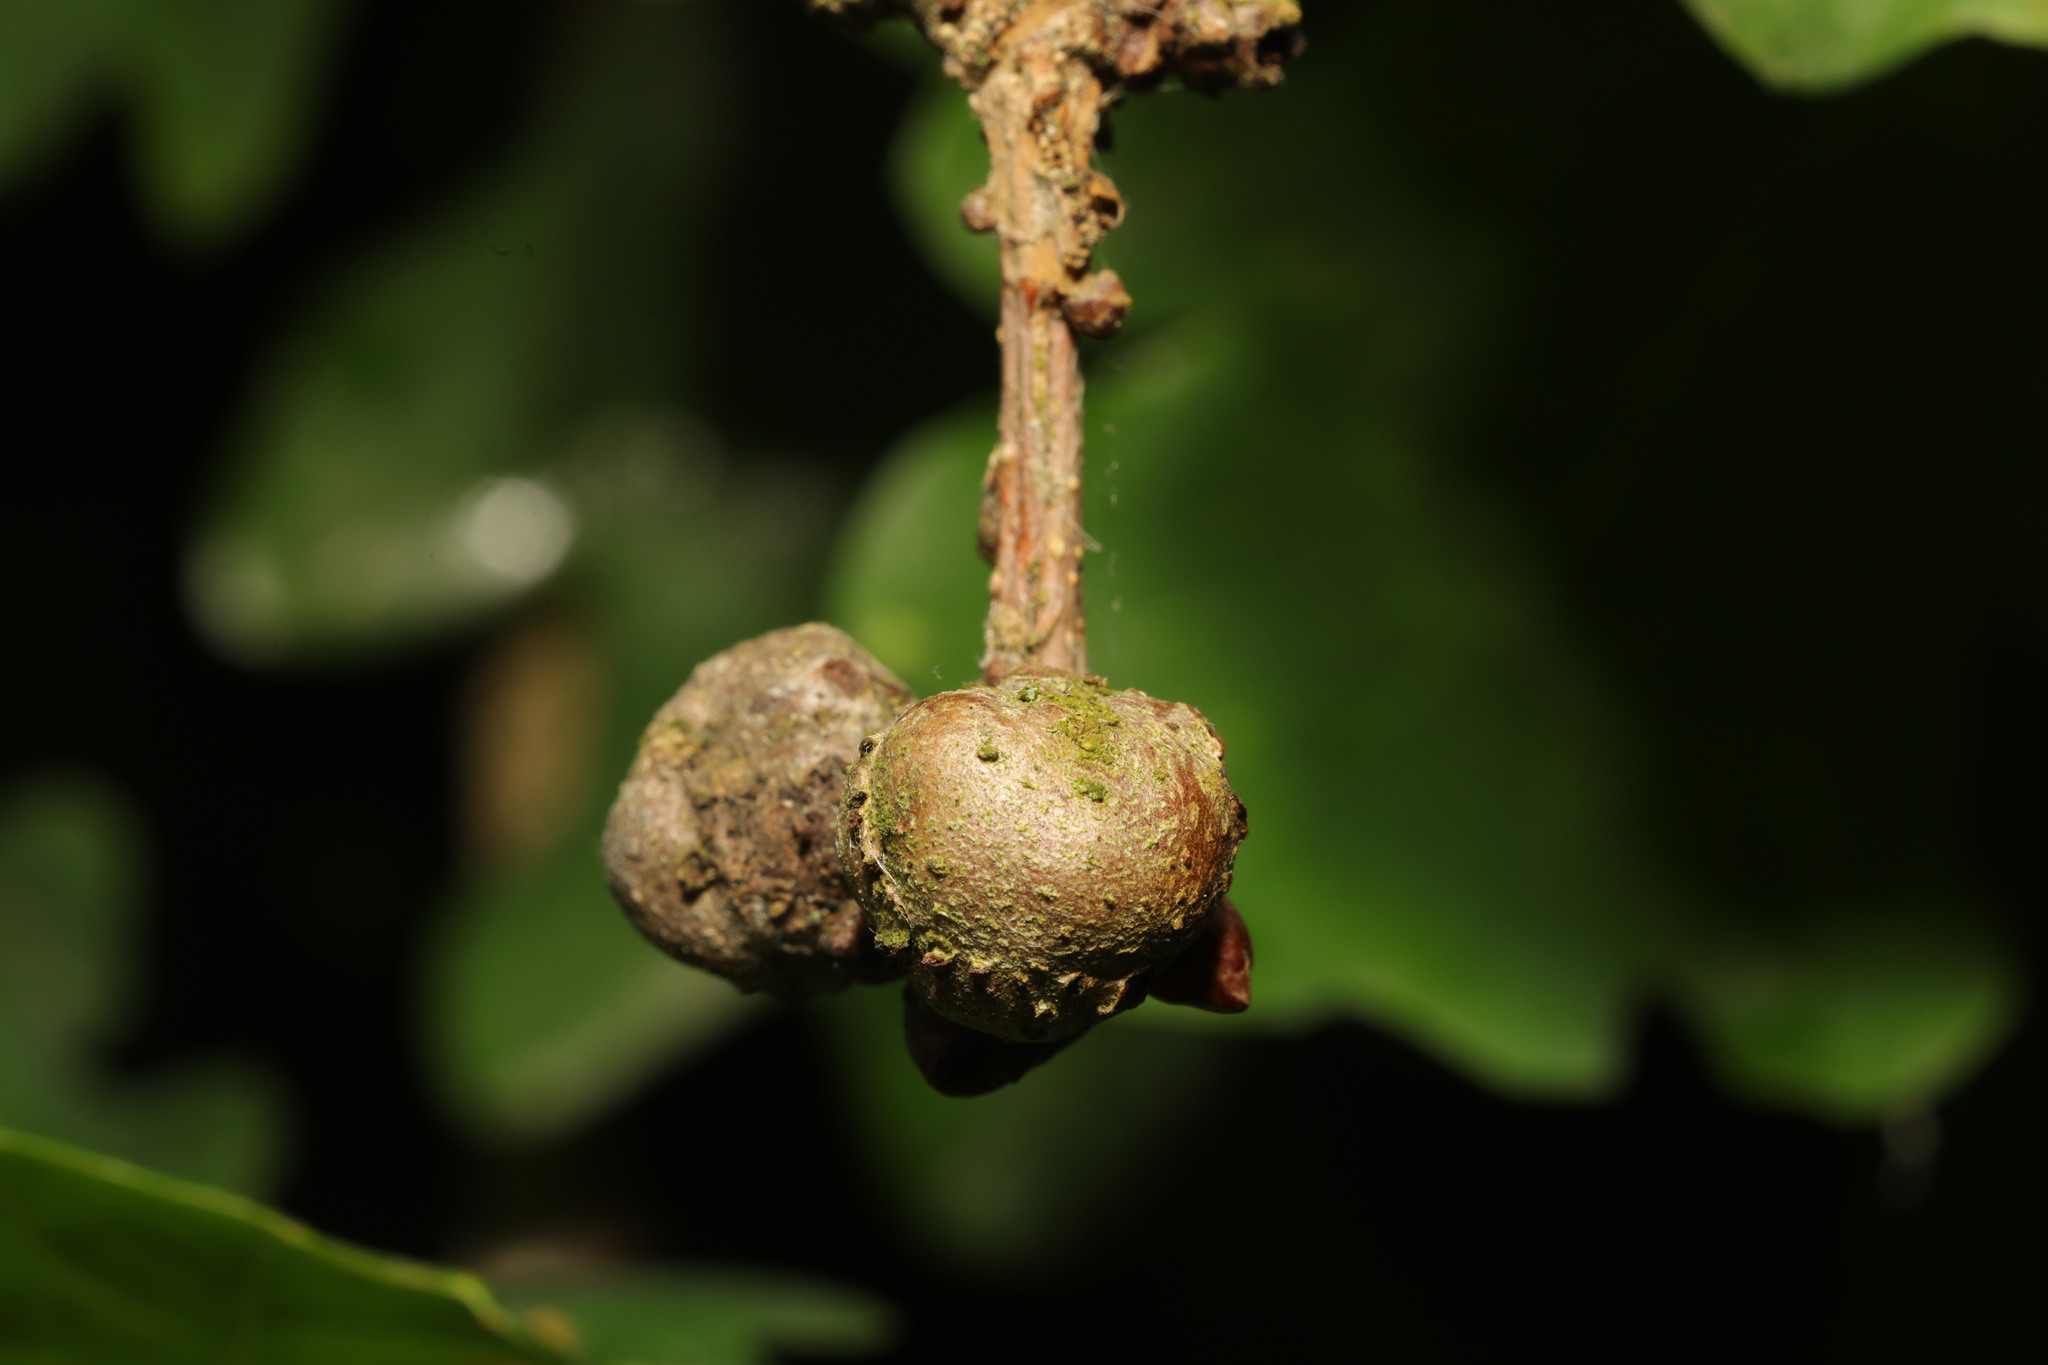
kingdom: Animalia
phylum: Arthropoda
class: Insecta
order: Hymenoptera
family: Cynipidae
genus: Andricus
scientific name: Andricus lignicolus
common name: Cola-nut gall
